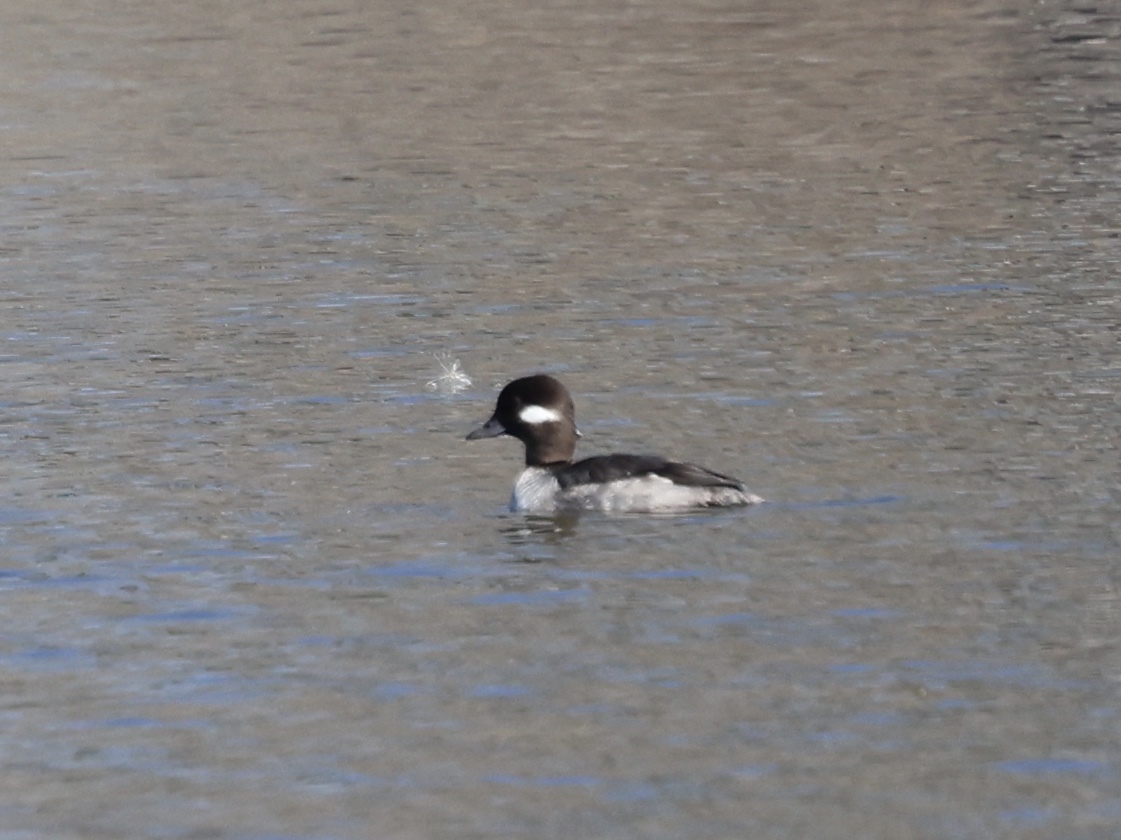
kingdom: Animalia
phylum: Chordata
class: Aves
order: Anseriformes
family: Anatidae
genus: Bucephala
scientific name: Bucephala albeola
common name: Bufflehead
